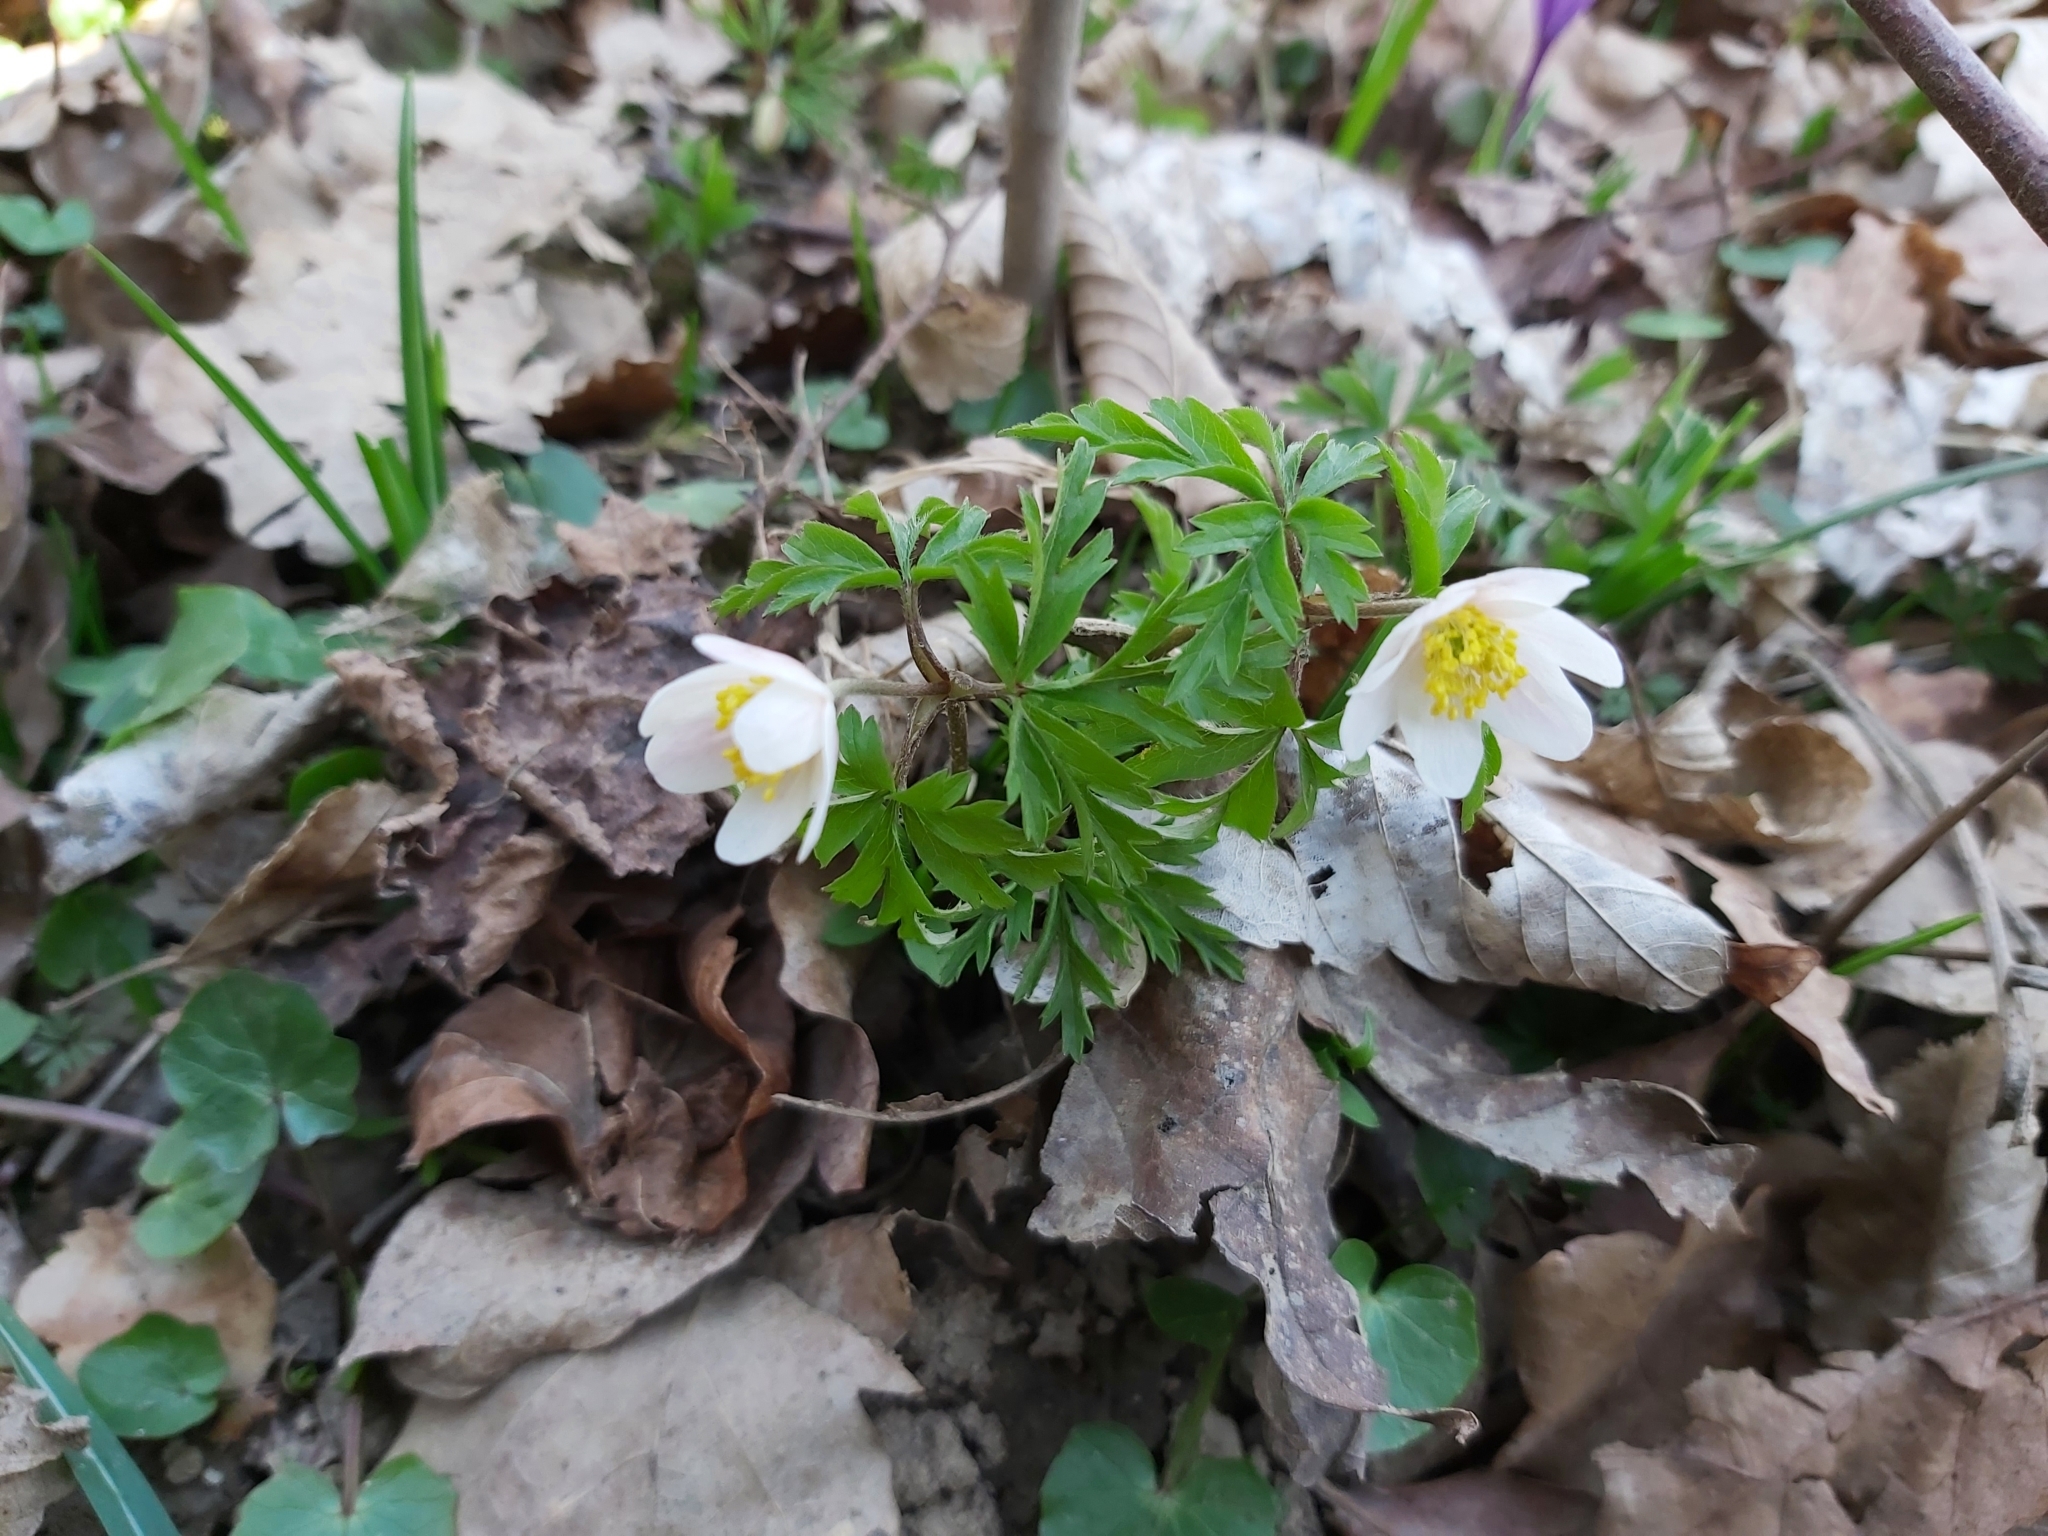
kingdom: Plantae
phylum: Tracheophyta
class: Magnoliopsida
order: Ranunculales
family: Ranunculaceae
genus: Anemone
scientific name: Anemone nemorosa
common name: Wood anemone
